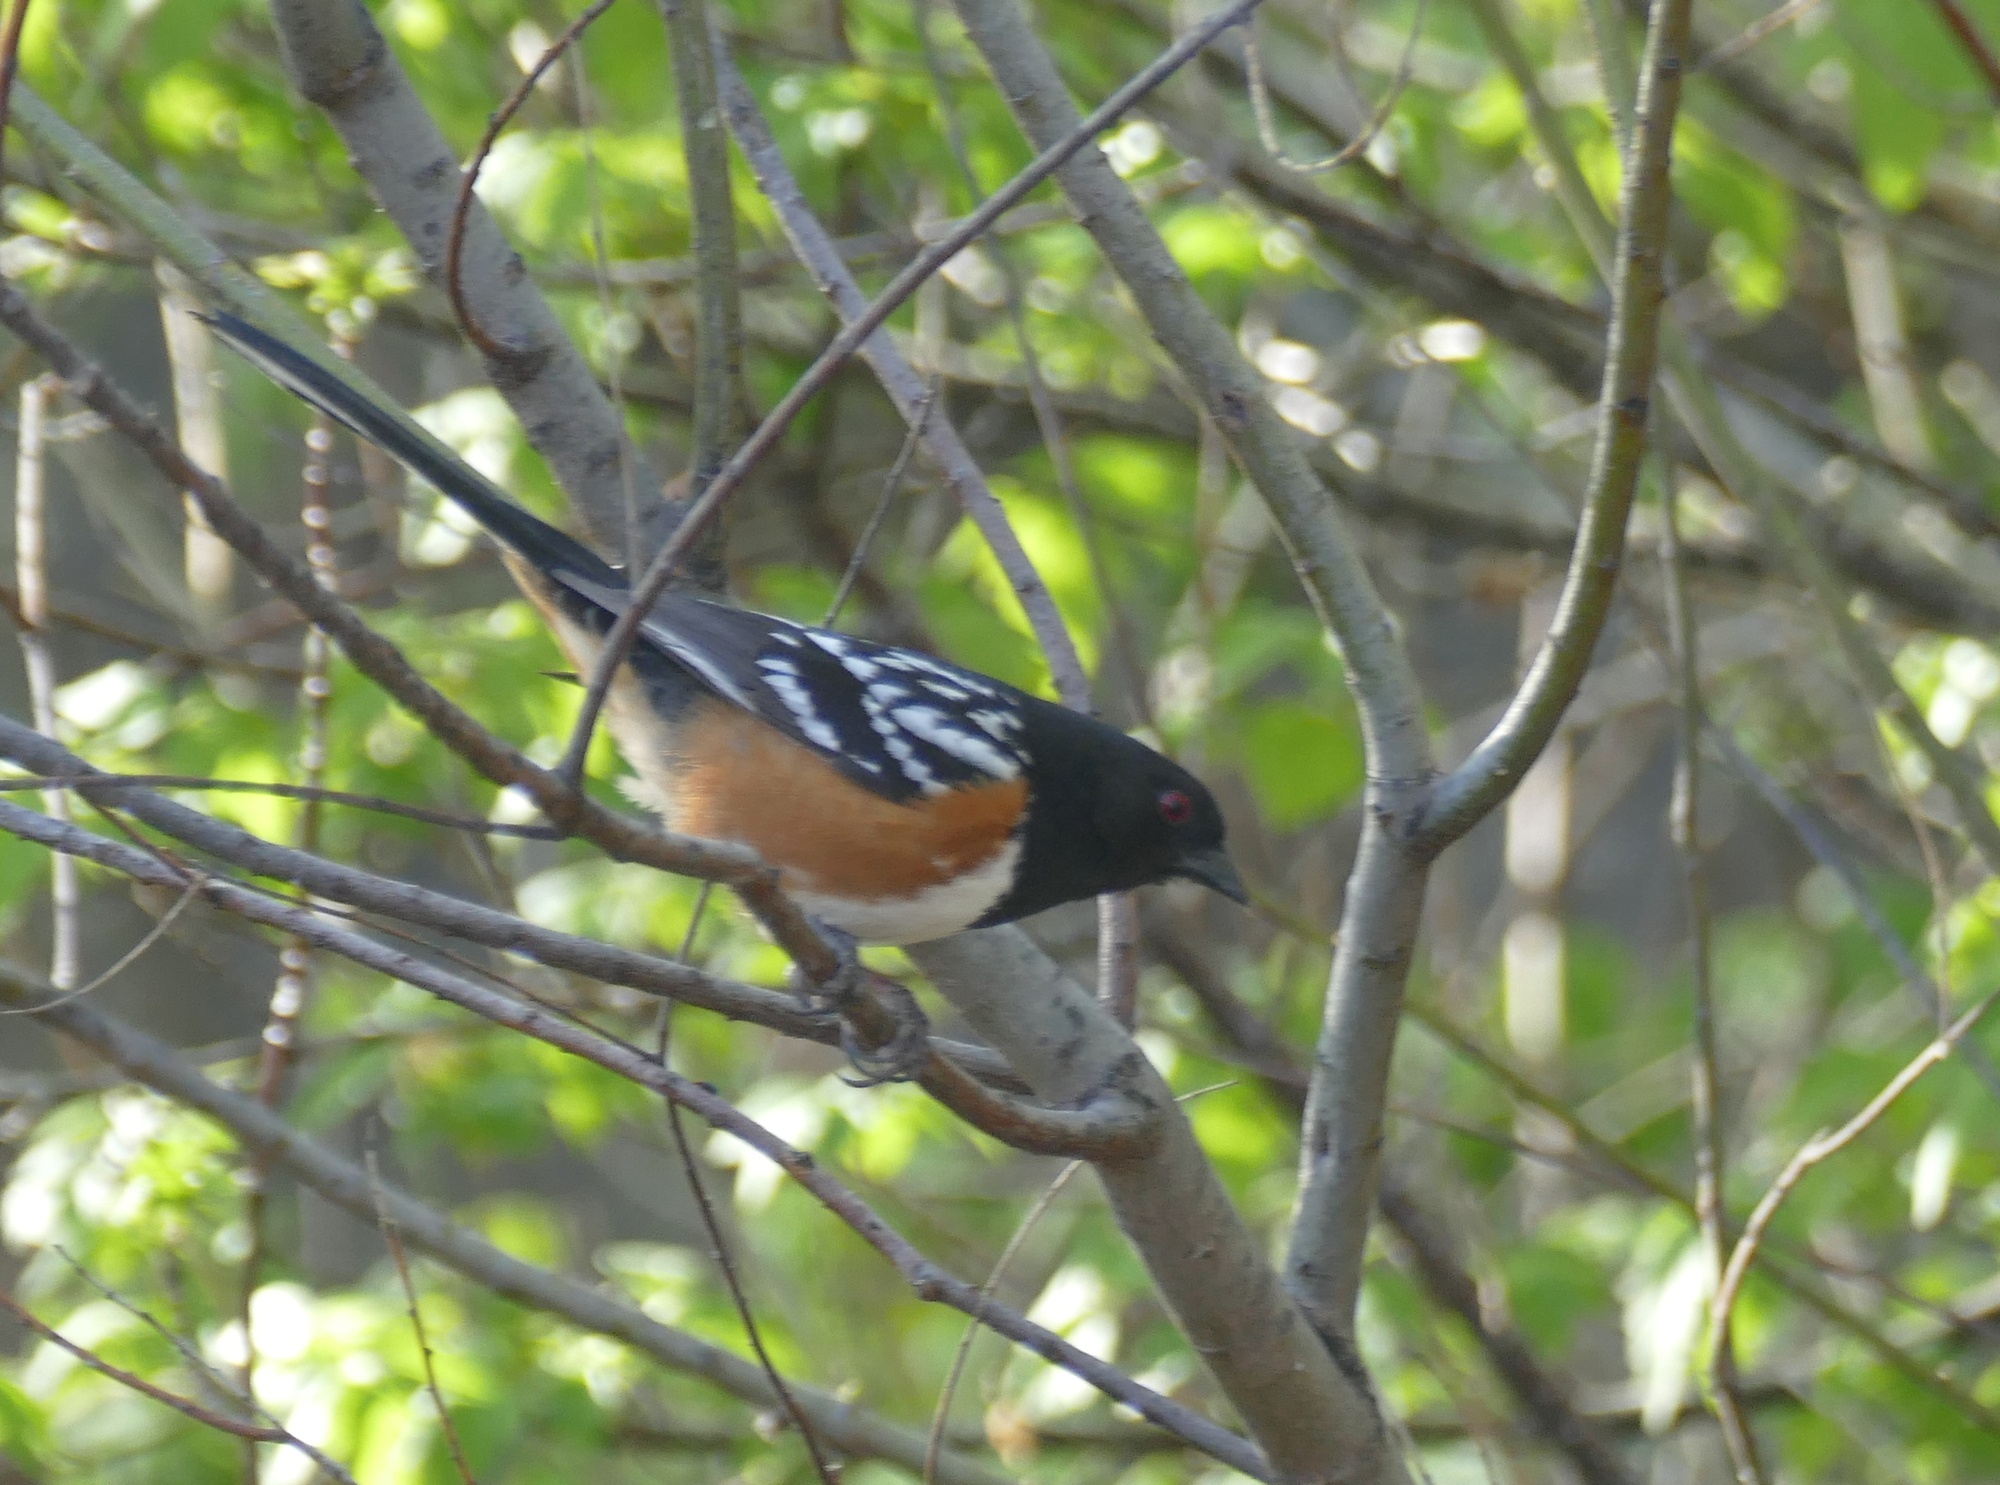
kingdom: Animalia
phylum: Chordata
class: Aves
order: Passeriformes
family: Passerellidae
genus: Pipilo
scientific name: Pipilo maculatus
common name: Spotted towhee
